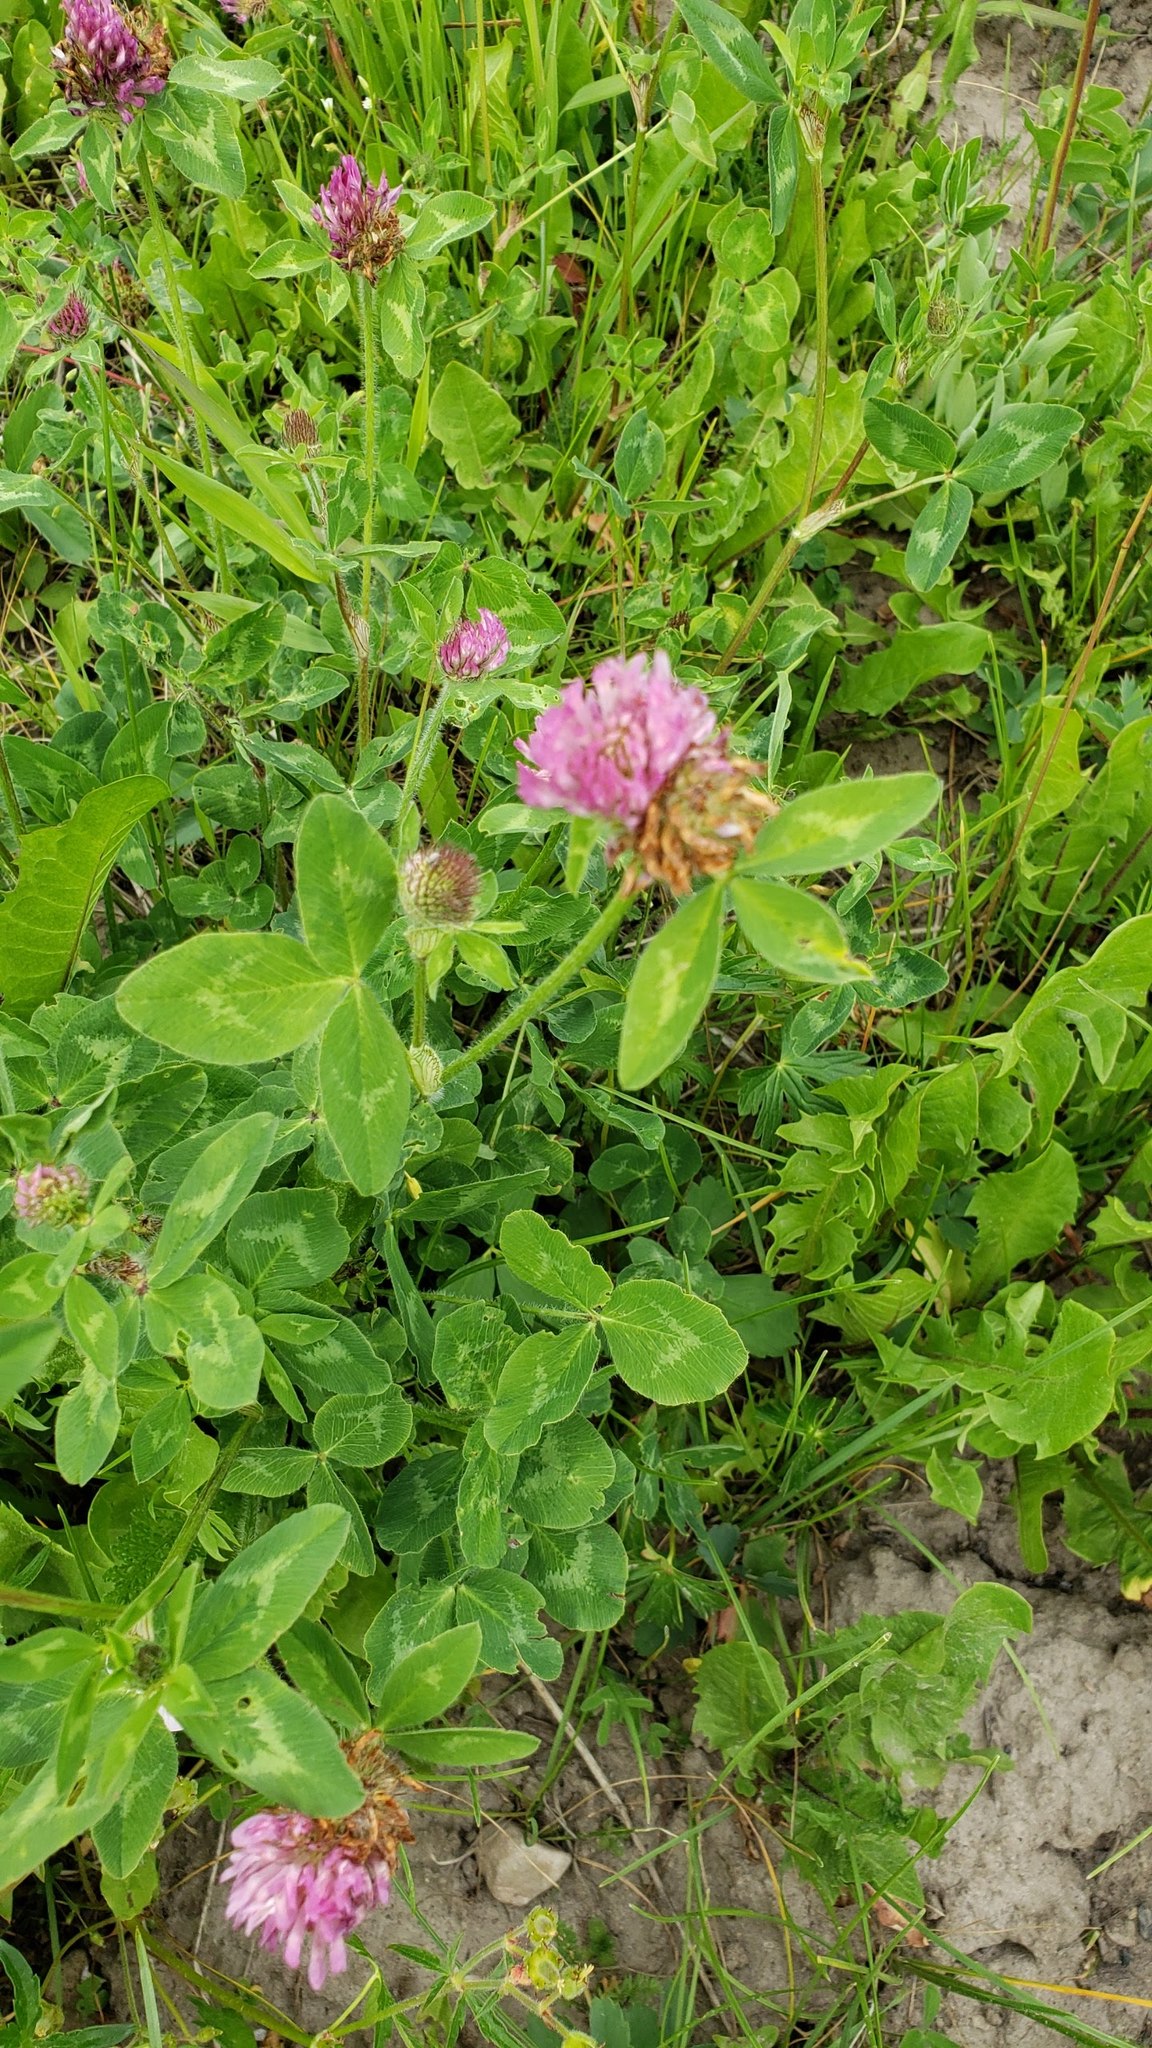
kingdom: Plantae
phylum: Tracheophyta
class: Magnoliopsida
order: Fabales
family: Fabaceae
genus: Trifolium
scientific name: Trifolium pratense
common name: Red clover
